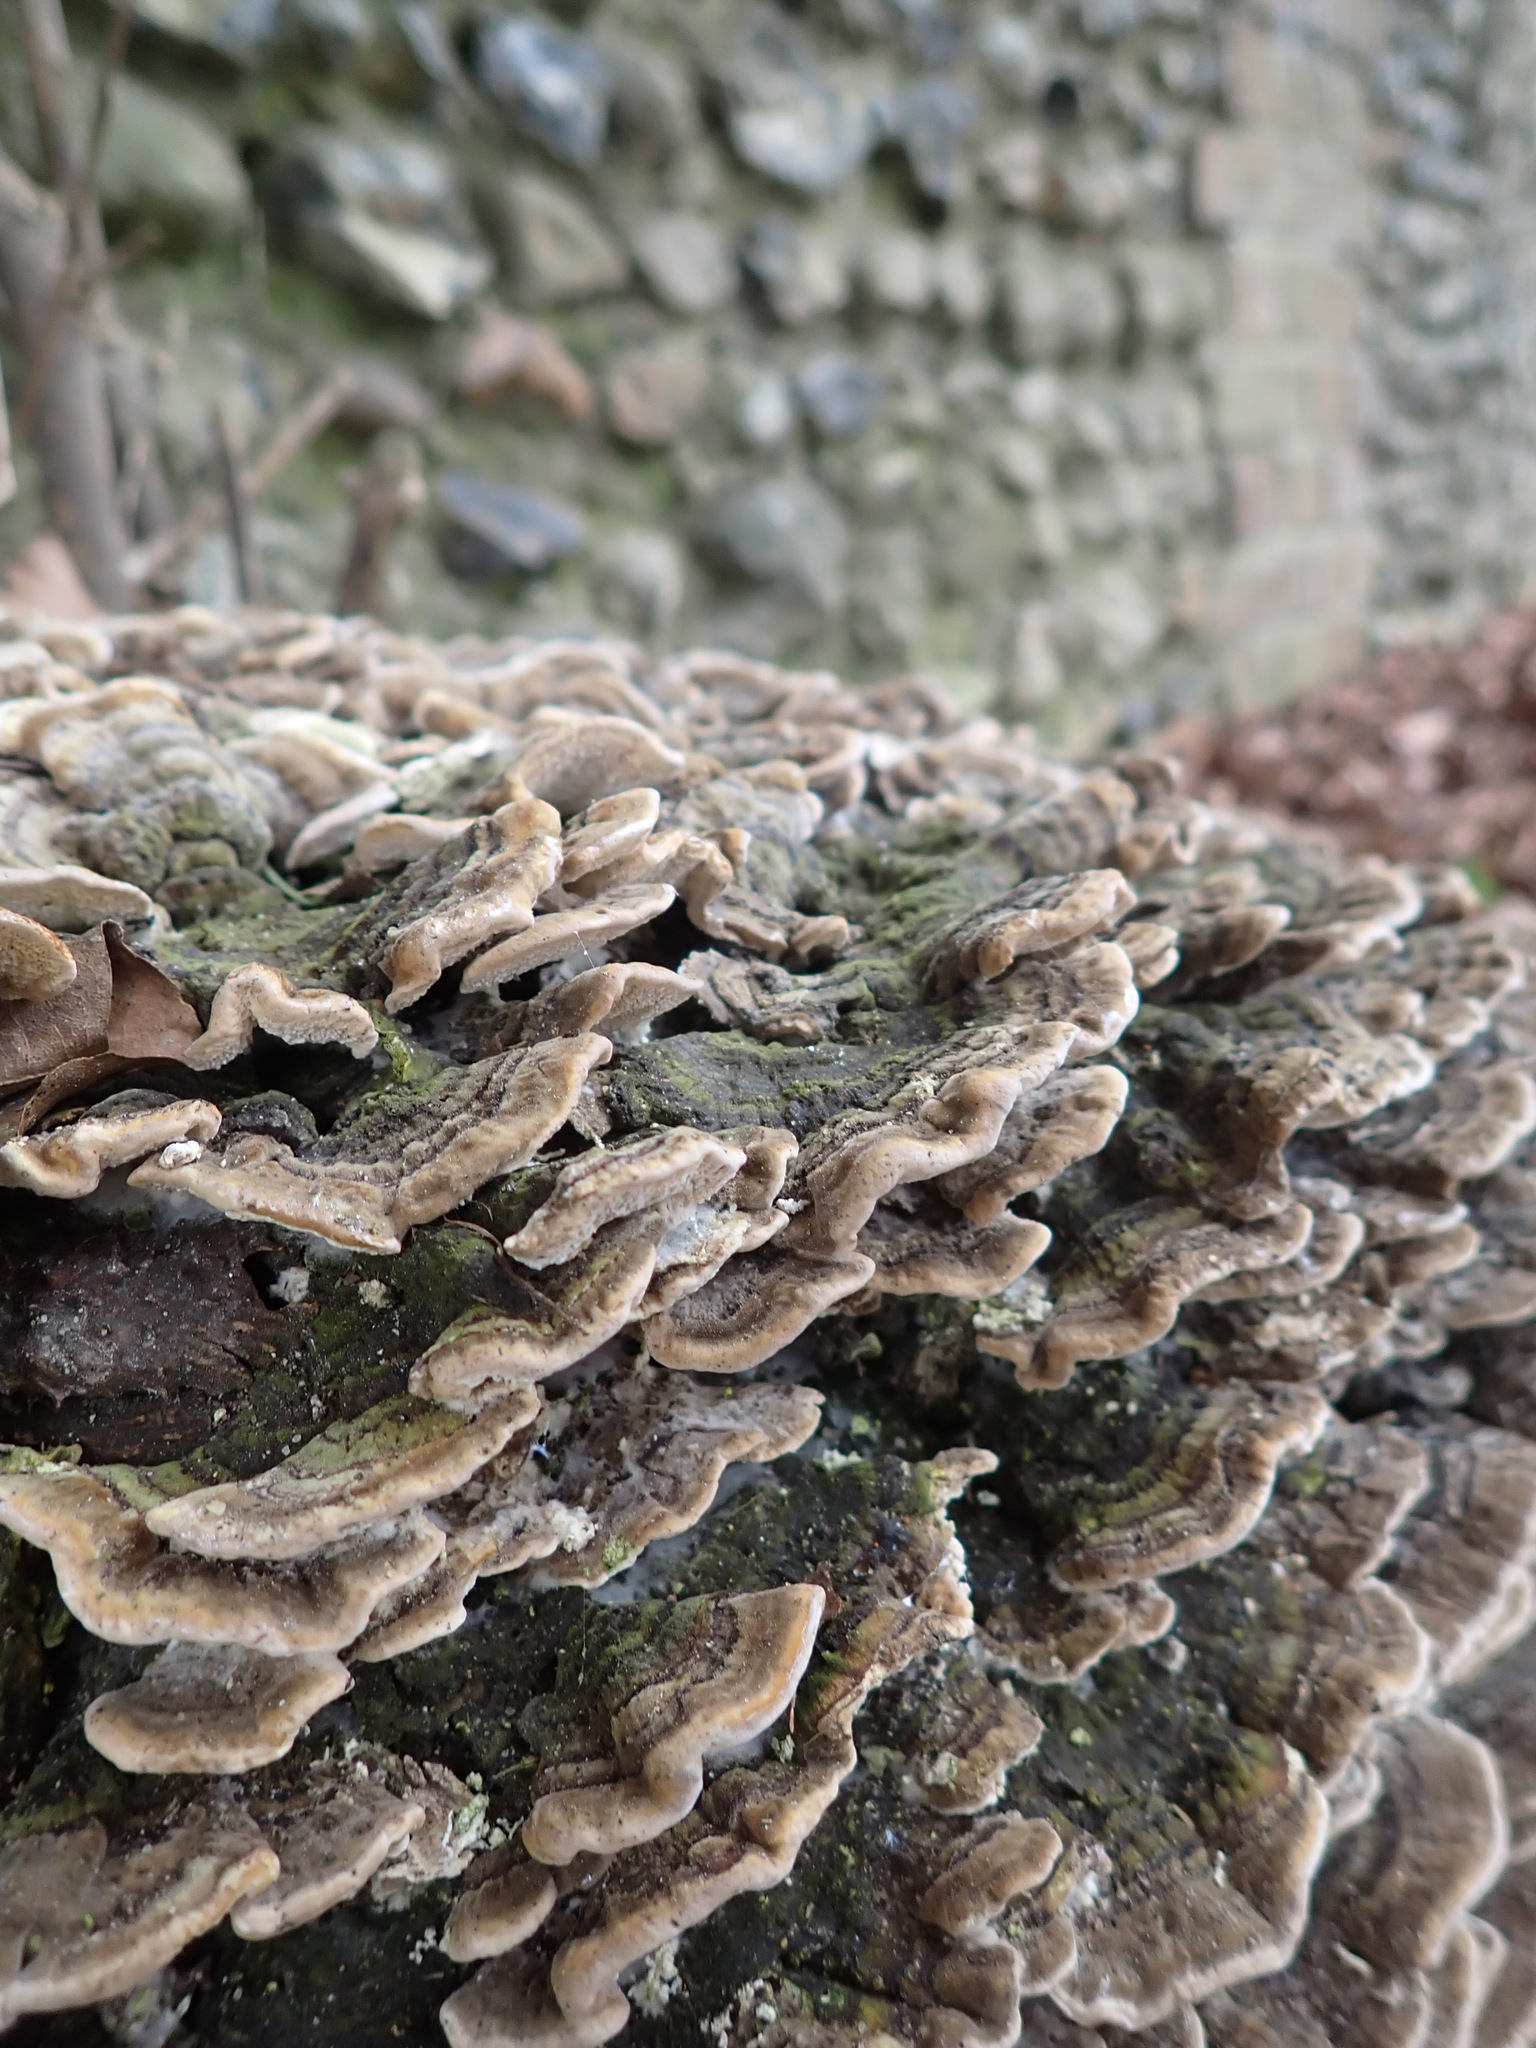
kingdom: Fungi
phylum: Basidiomycota
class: Agaricomycetes
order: Polyporales
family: Polyporaceae
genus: Trametes
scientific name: Trametes versicolor
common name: Turkeytail
